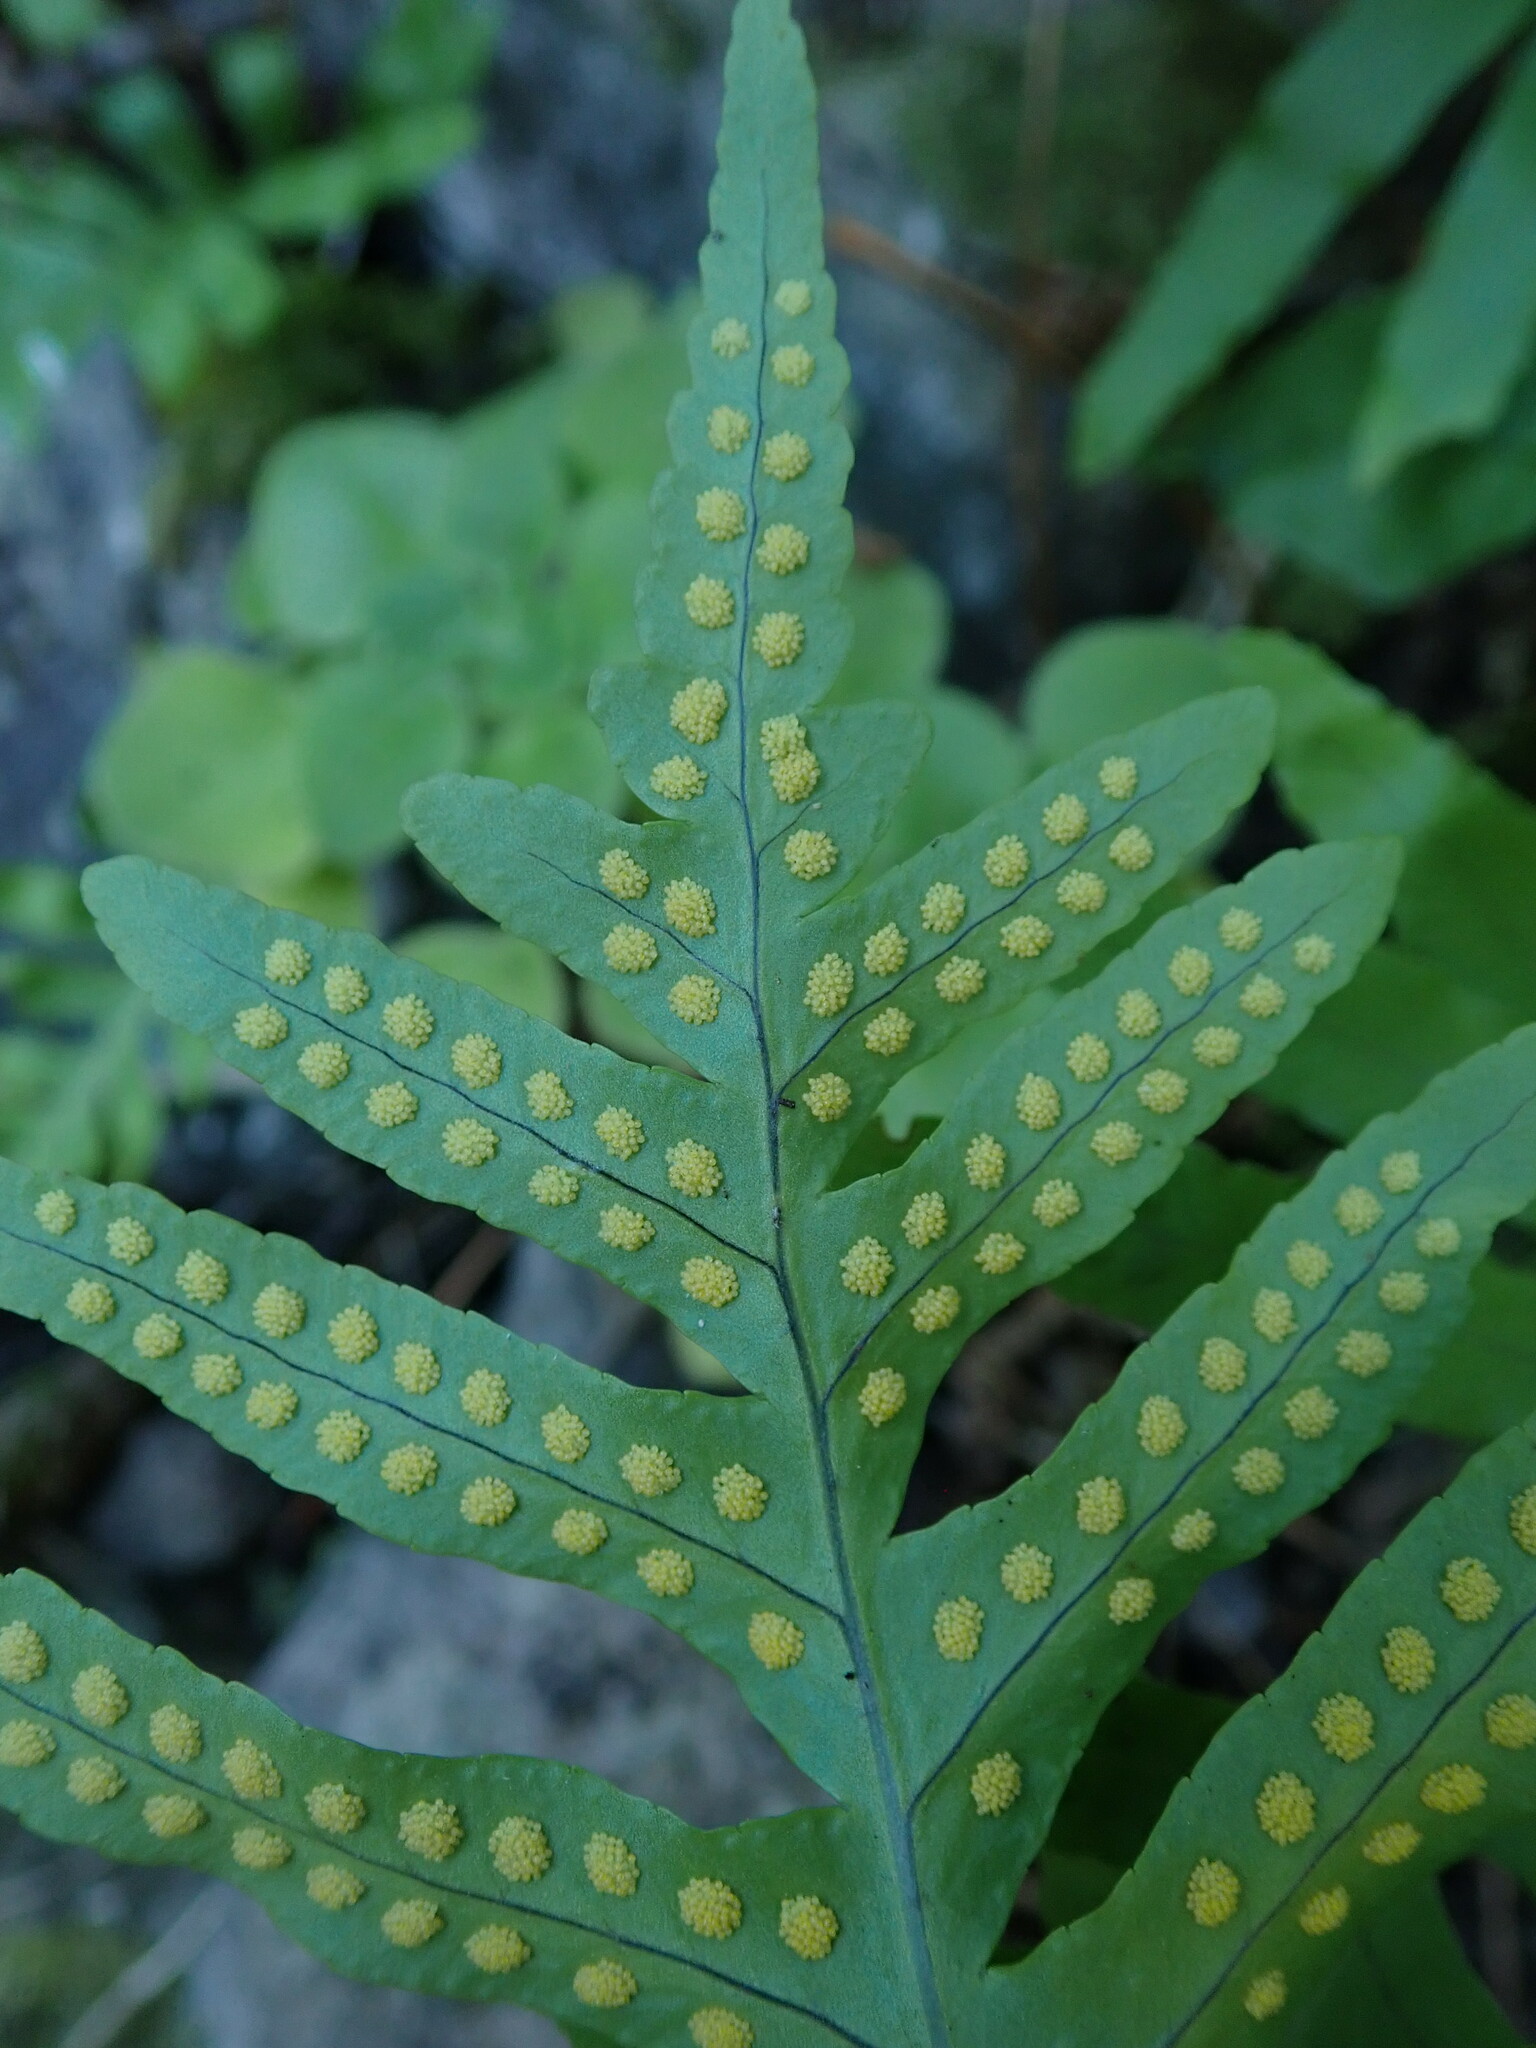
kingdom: Plantae
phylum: Tracheophyta
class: Polypodiopsida
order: Polypodiales
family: Polypodiaceae
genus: Polypodium
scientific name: Polypodium macaronesicum
